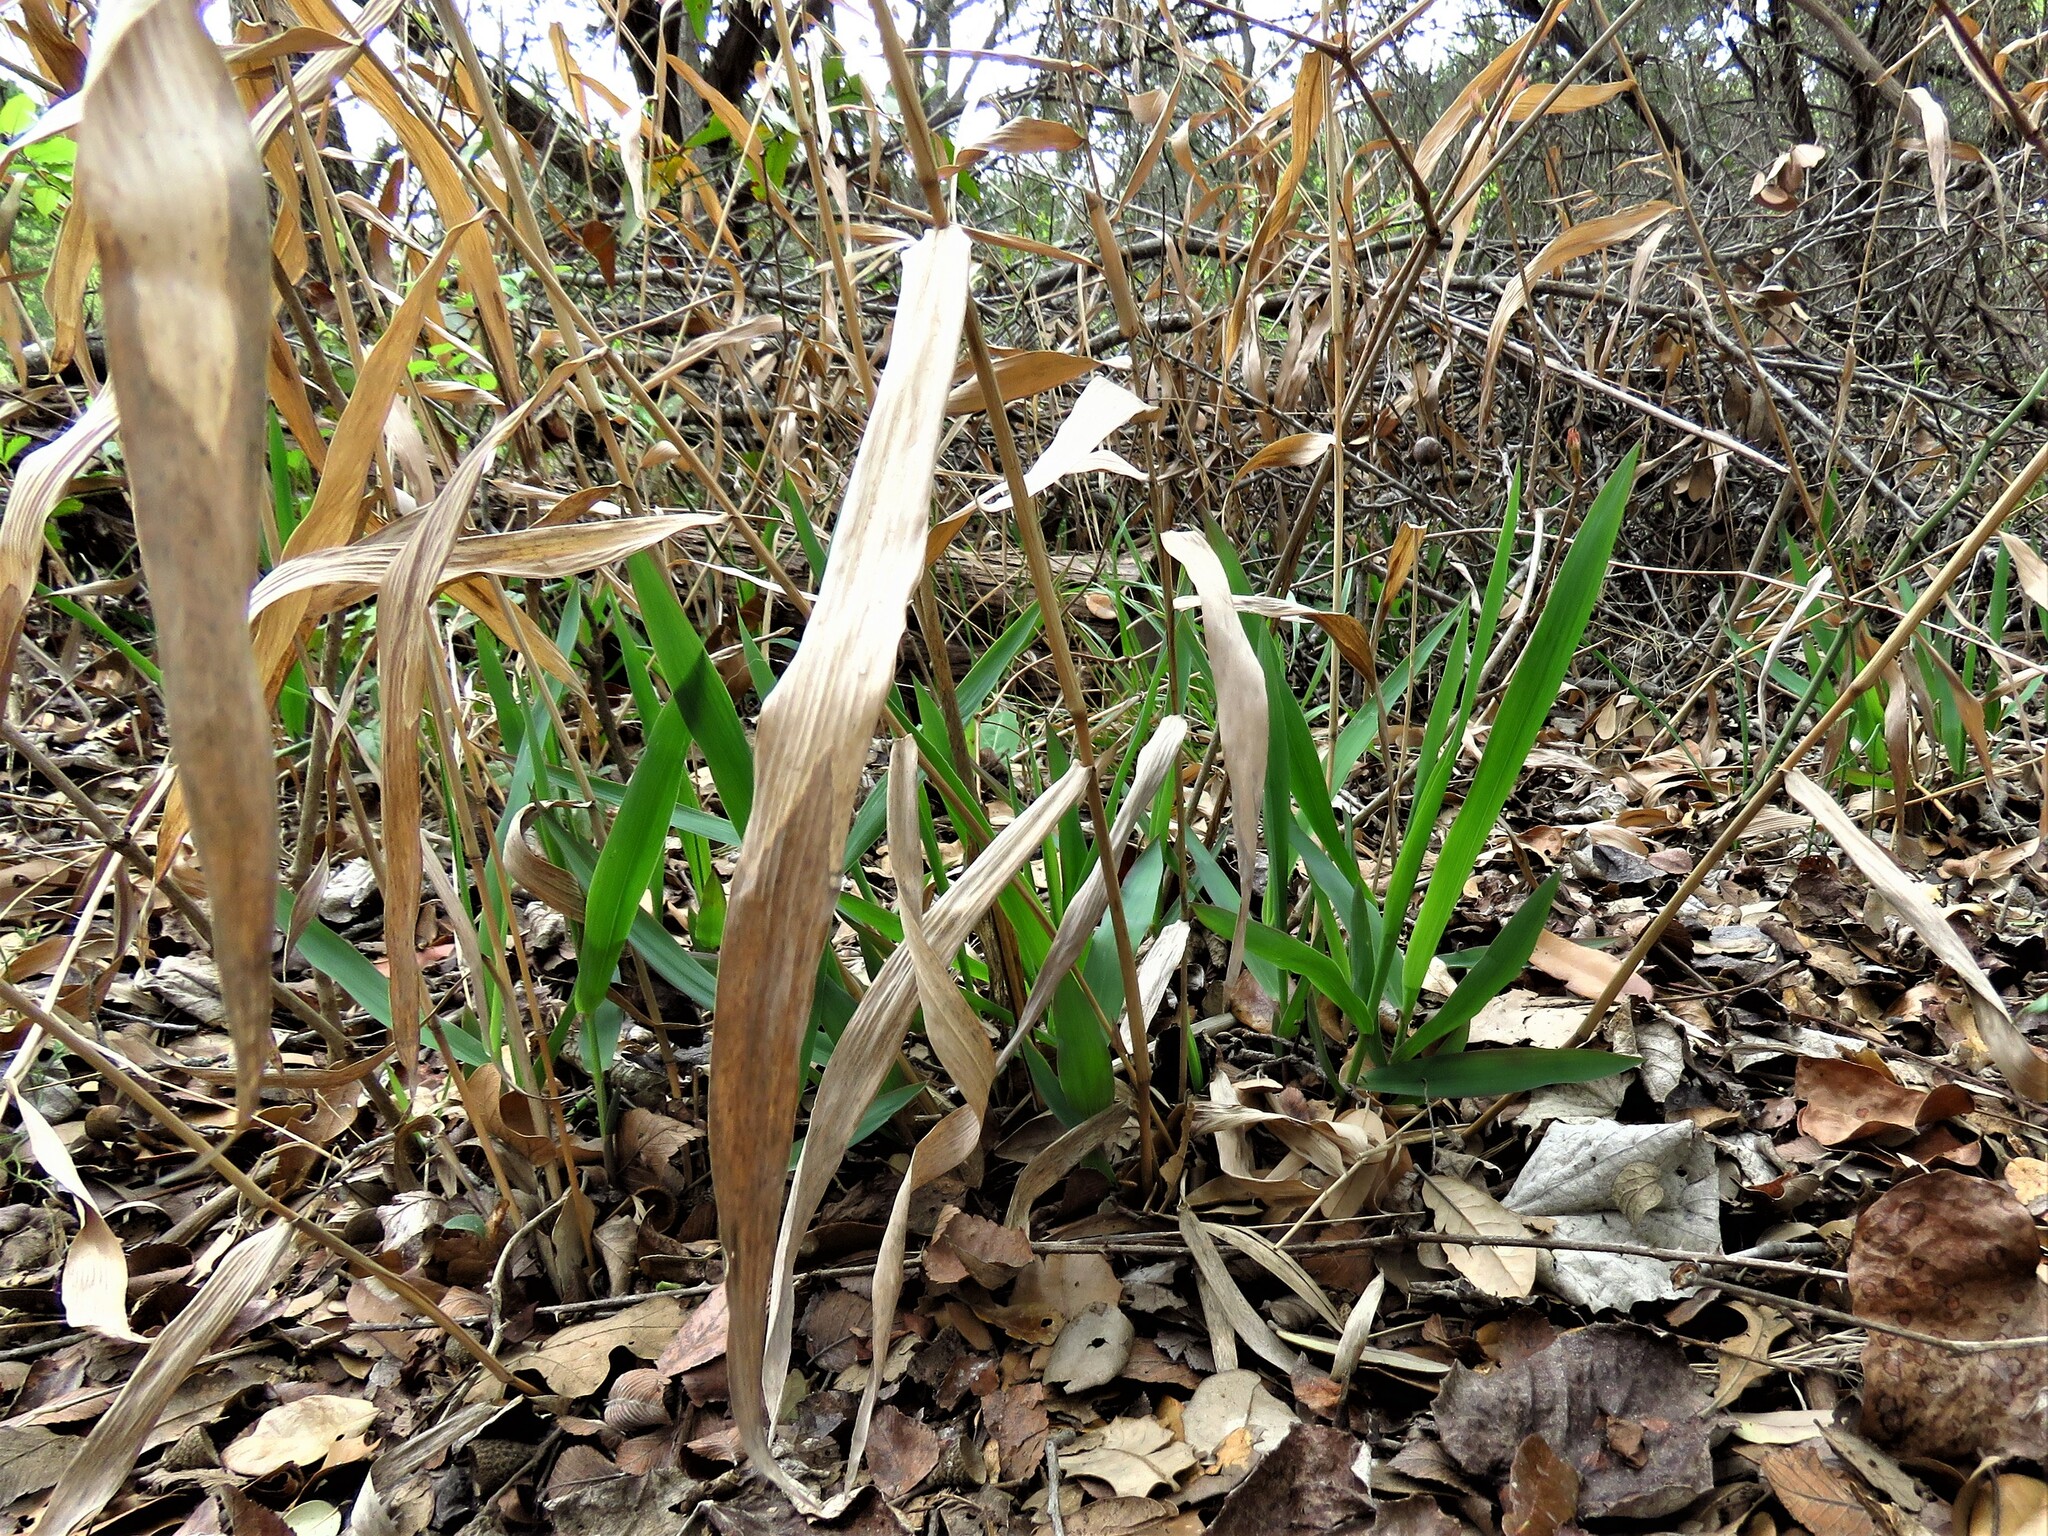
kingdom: Plantae
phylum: Tracheophyta
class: Liliopsida
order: Poales
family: Poaceae
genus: Chasmanthium
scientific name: Chasmanthium latifolium
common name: Broad-leaved chasmanthium
